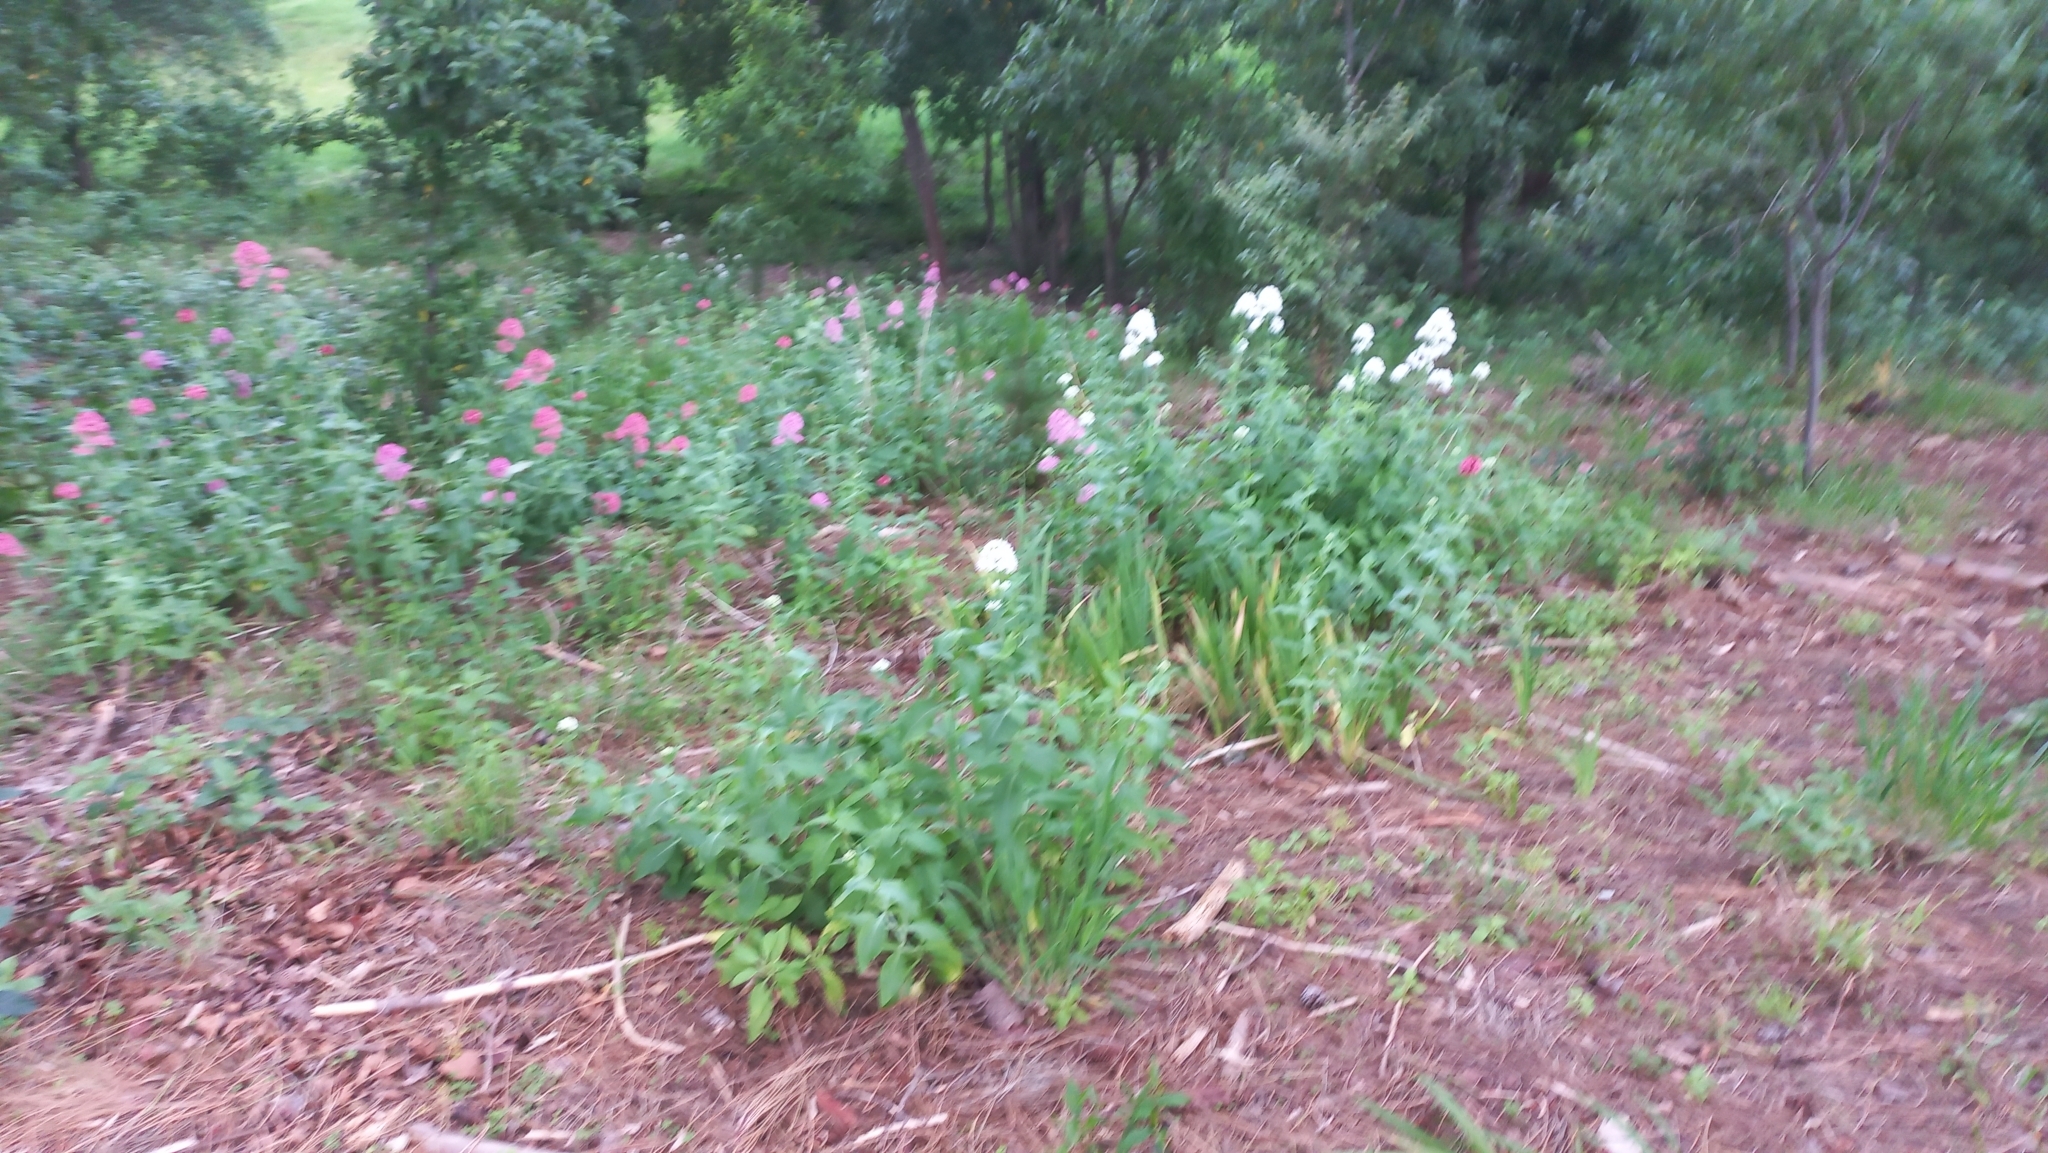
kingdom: Plantae
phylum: Tracheophyta
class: Magnoliopsida
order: Dipsacales
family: Caprifoliaceae
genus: Centranthus
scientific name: Centranthus ruber
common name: Red valerian
